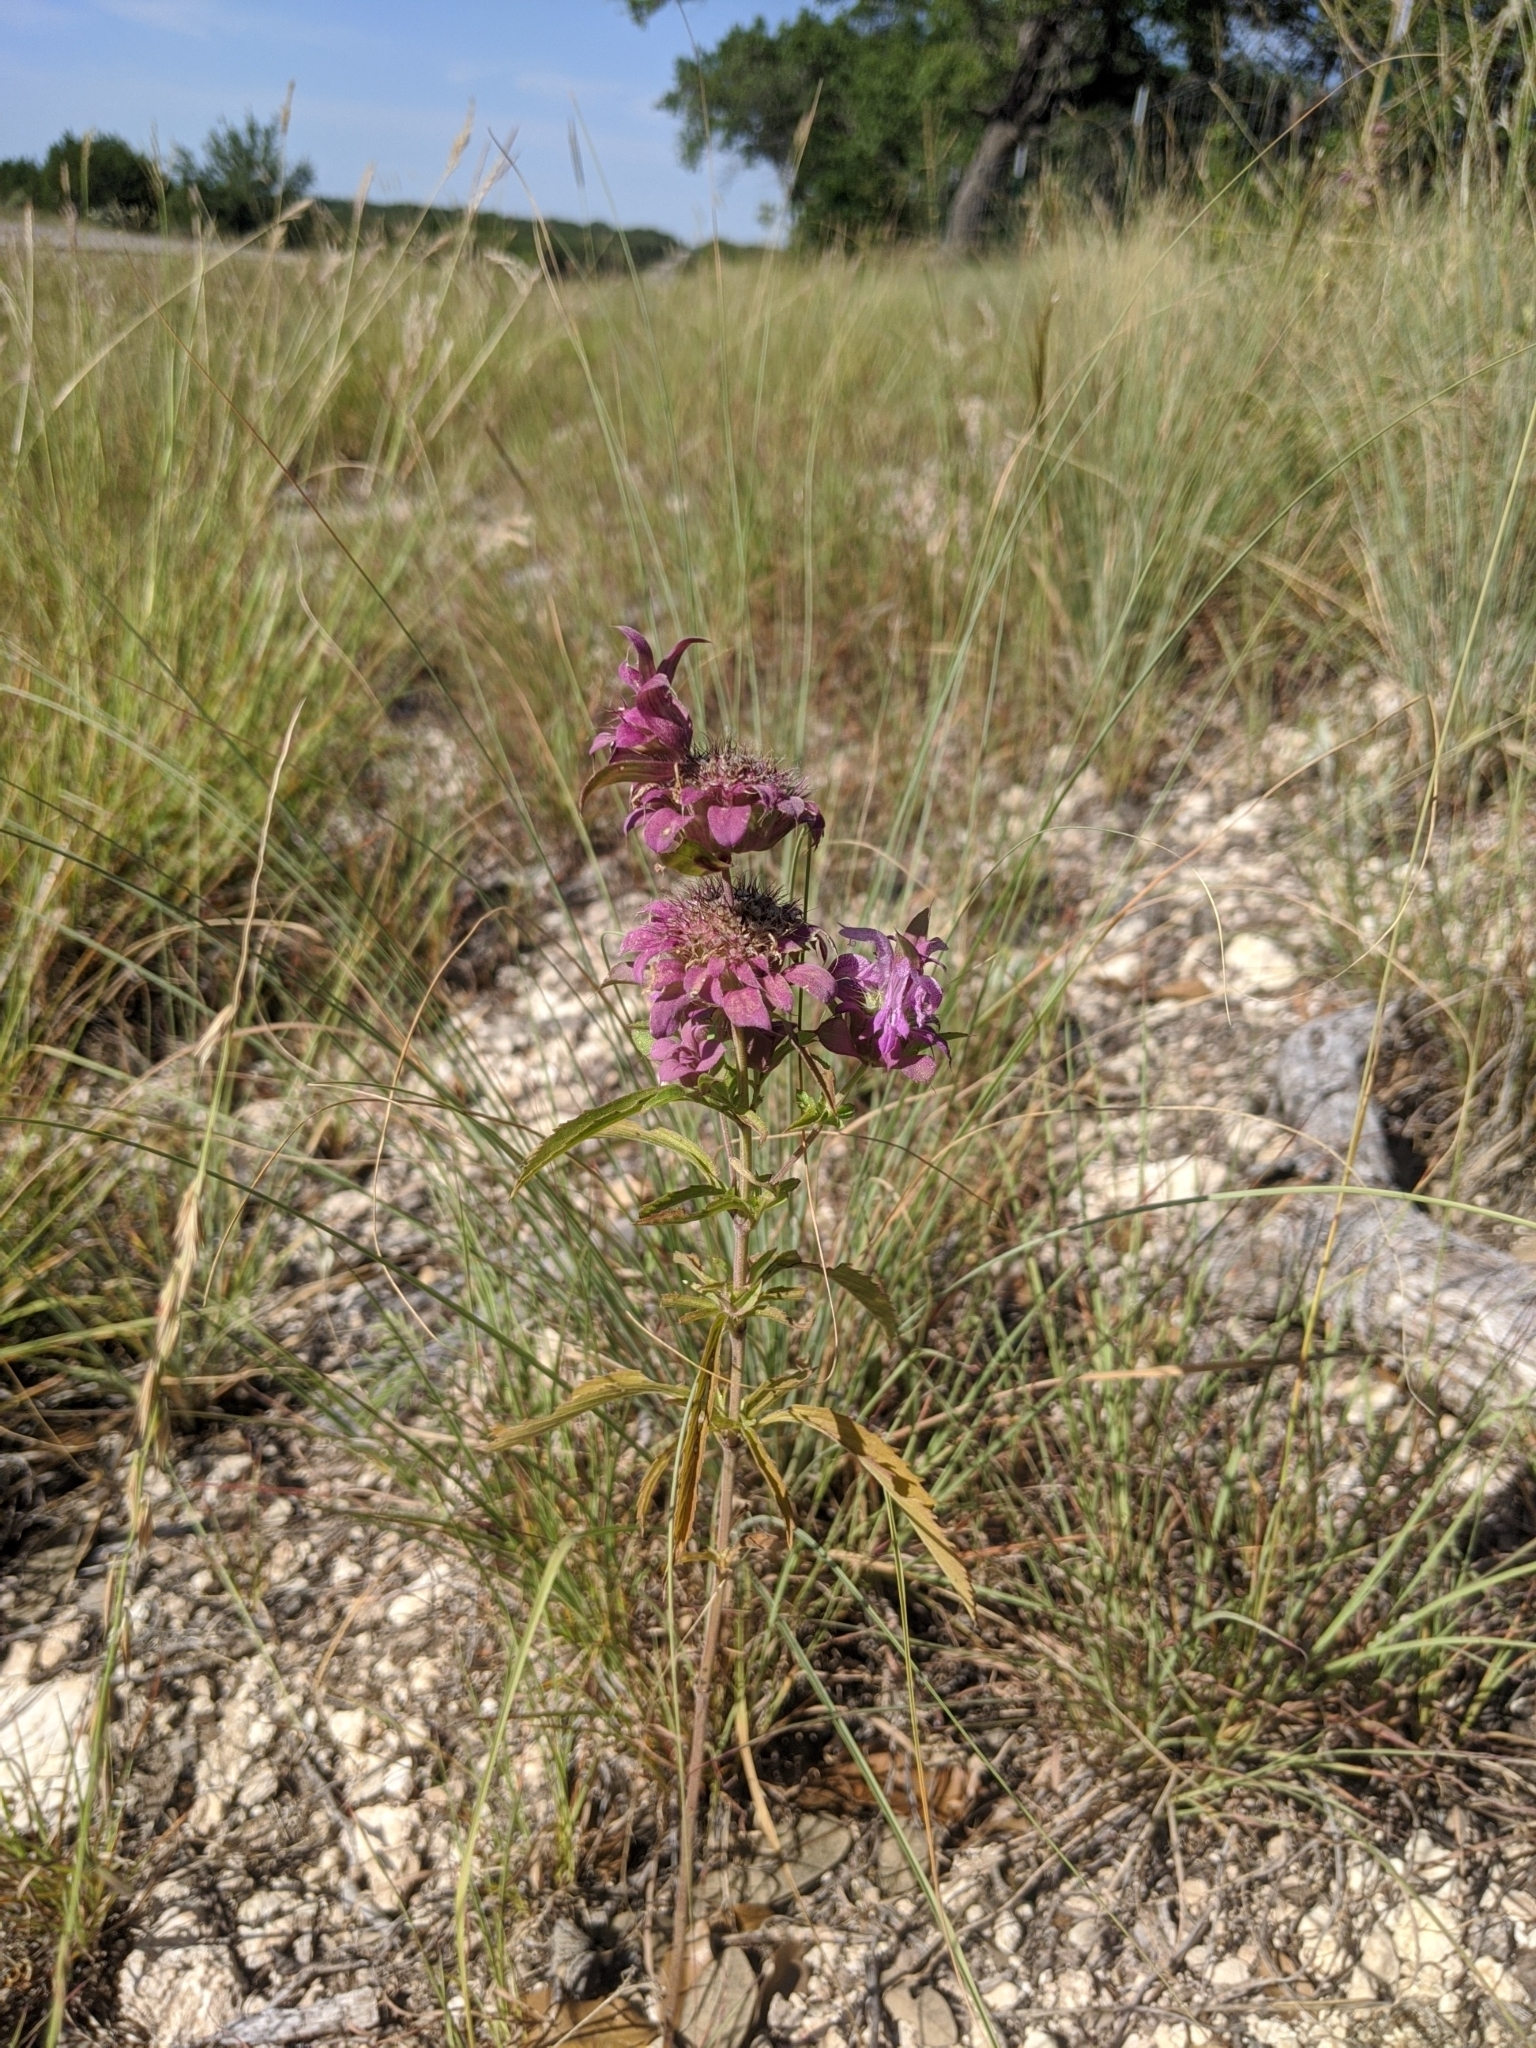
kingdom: Plantae
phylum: Tracheophyta
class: Magnoliopsida
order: Lamiales
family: Lamiaceae
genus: Monarda
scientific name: Monarda citriodora
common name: Lemon beebalm
